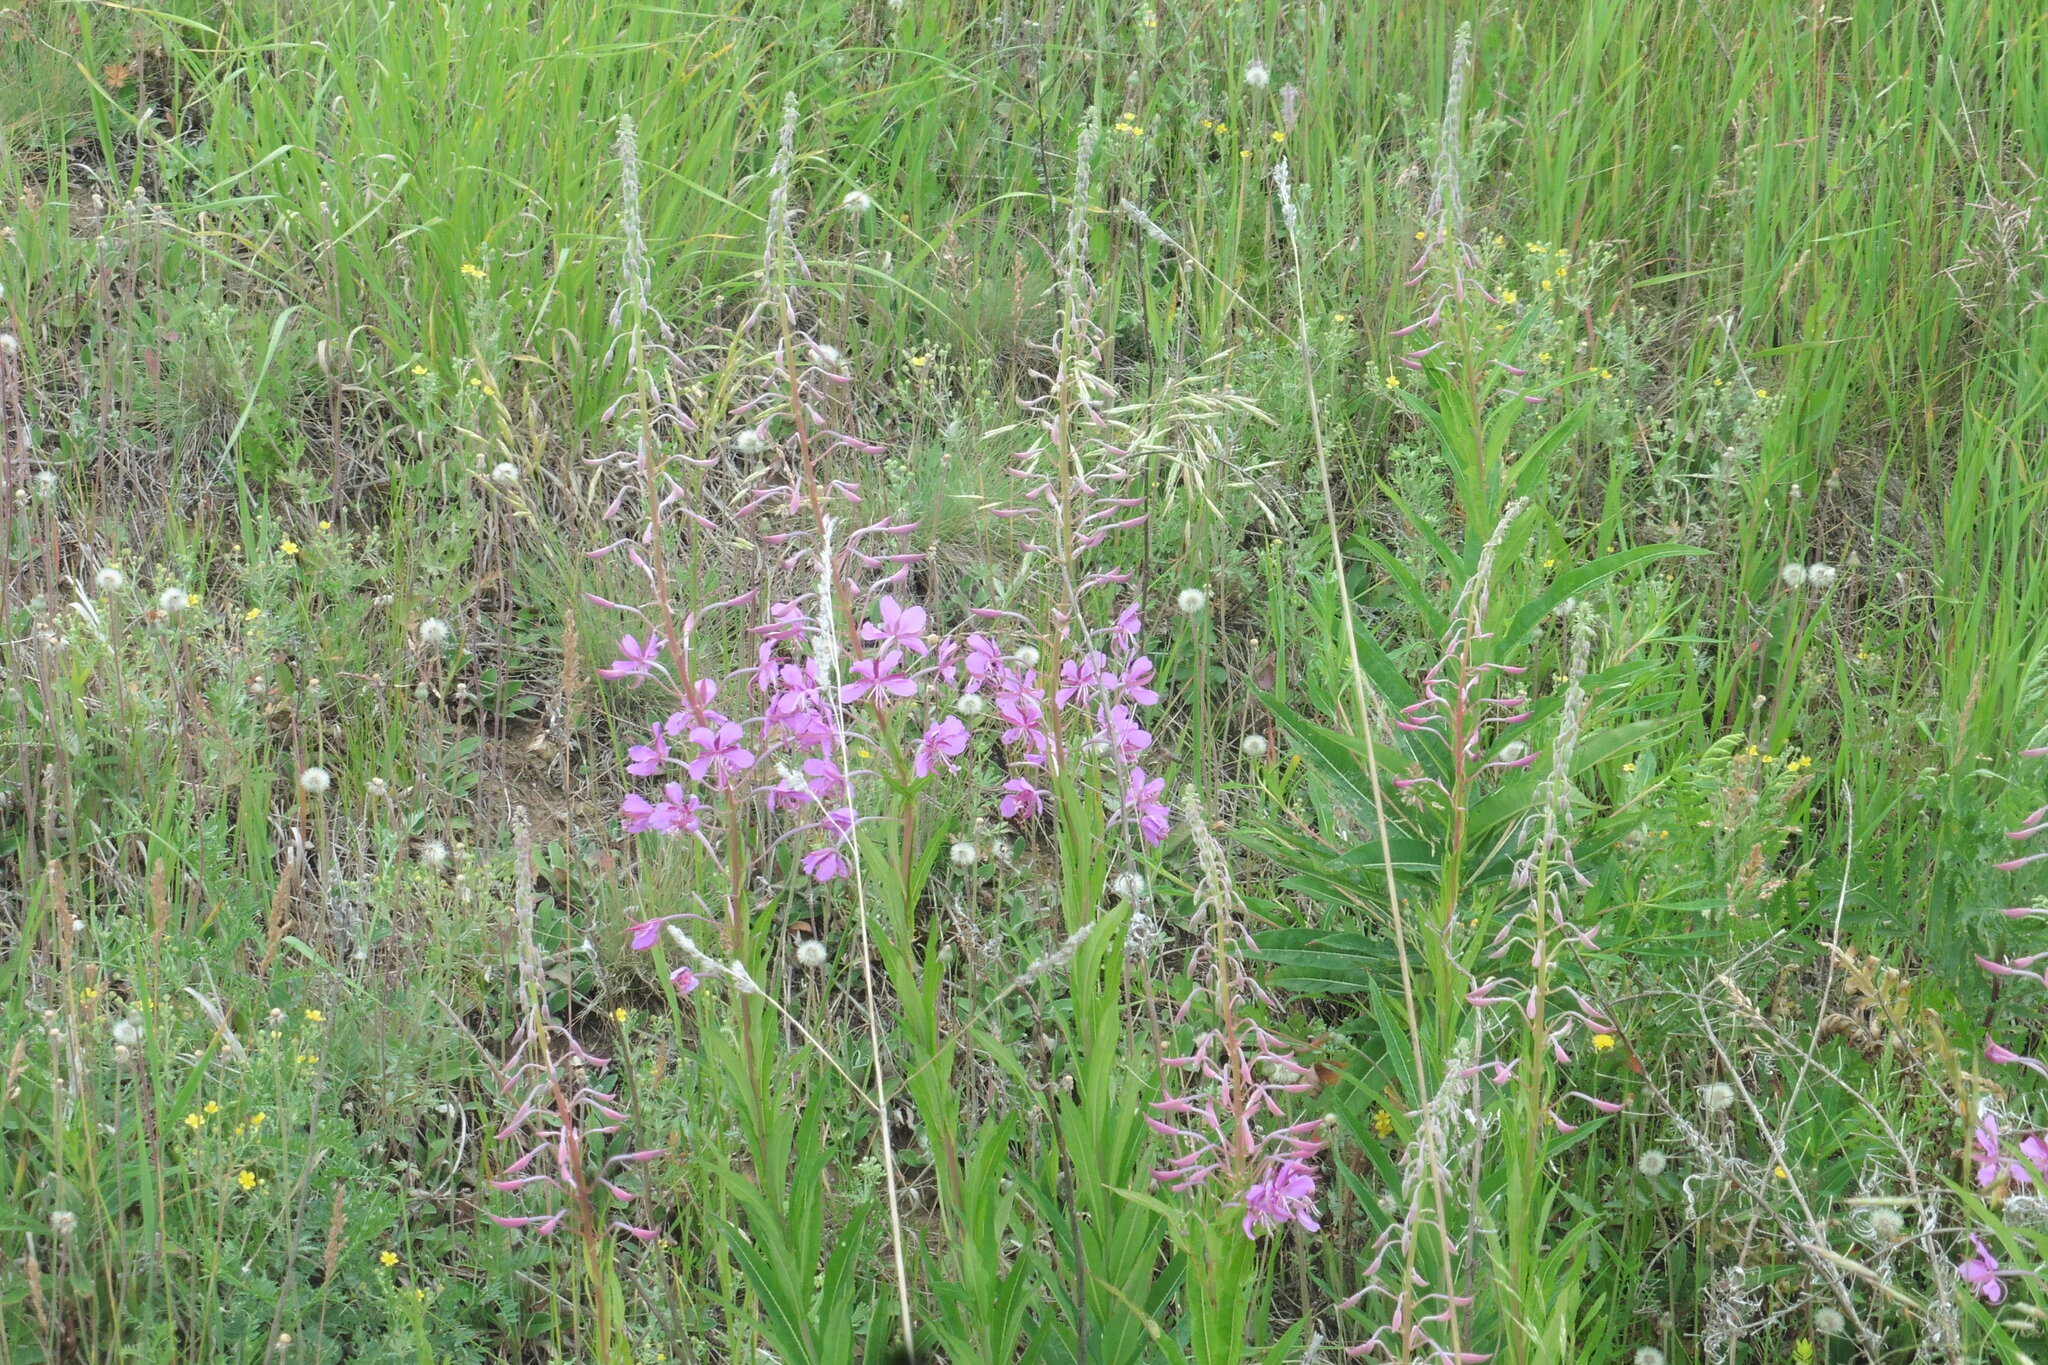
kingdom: Plantae
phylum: Tracheophyta
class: Magnoliopsida
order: Myrtales
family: Onagraceae
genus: Chamaenerion
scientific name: Chamaenerion angustifolium
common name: Fireweed
